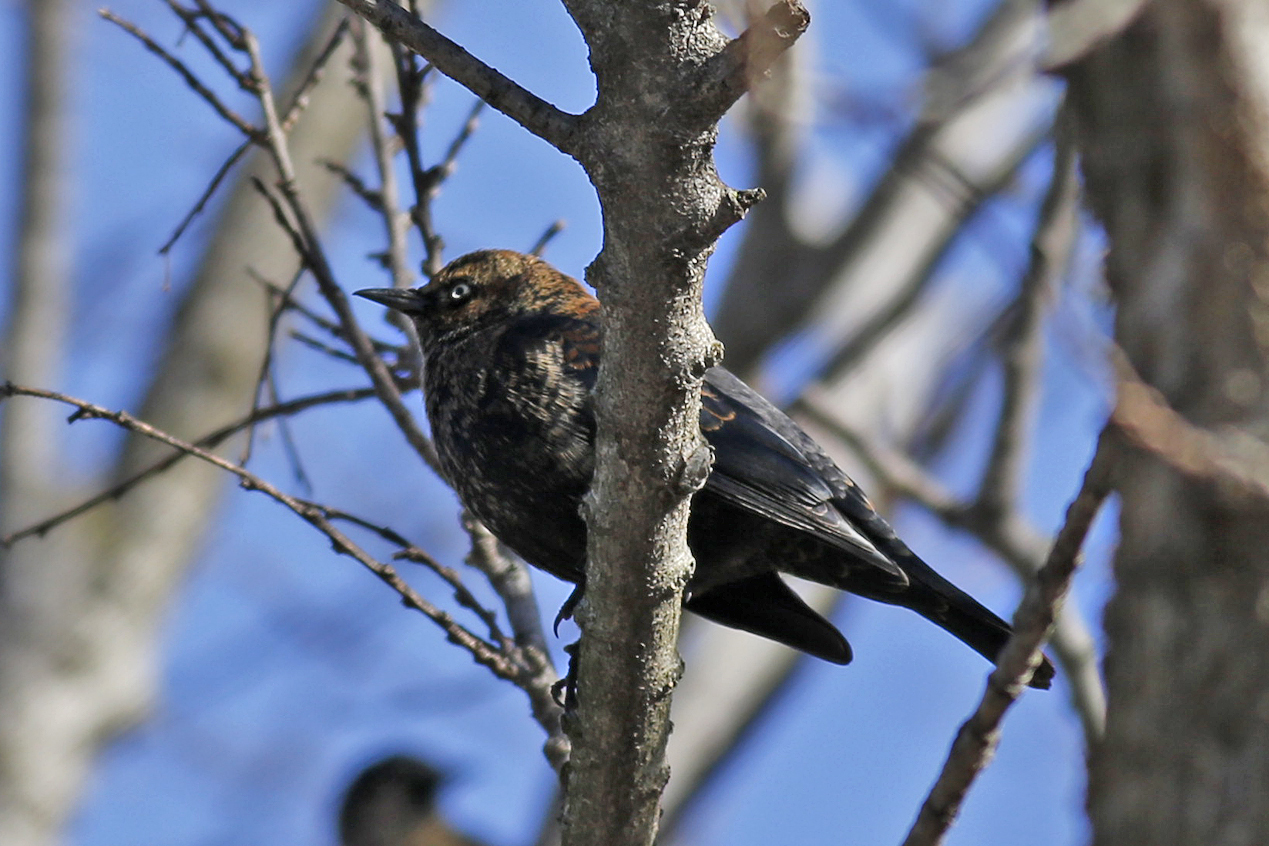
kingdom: Animalia
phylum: Chordata
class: Aves
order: Passeriformes
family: Icteridae
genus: Euphagus
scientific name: Euphagus carolinus
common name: Rusty blackbird
